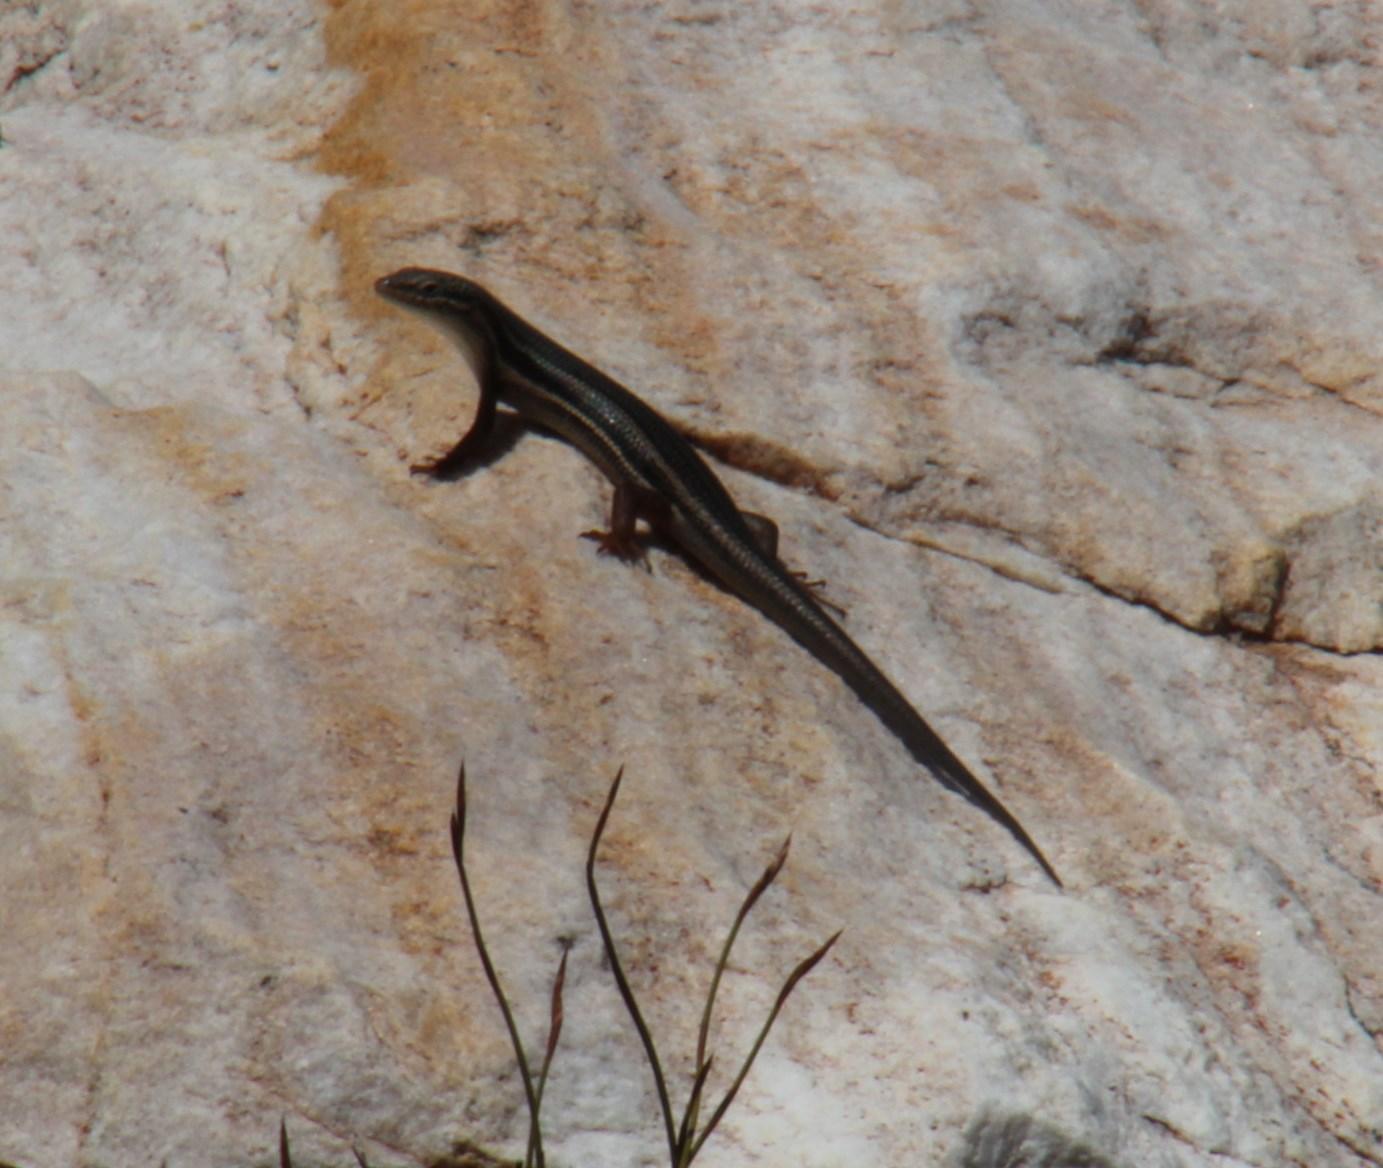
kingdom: Animalia
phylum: Chordata
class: Squamata
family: Scincidae
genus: Trachylepis
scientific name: Trachylepis homalocephala
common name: Red-sided skink
